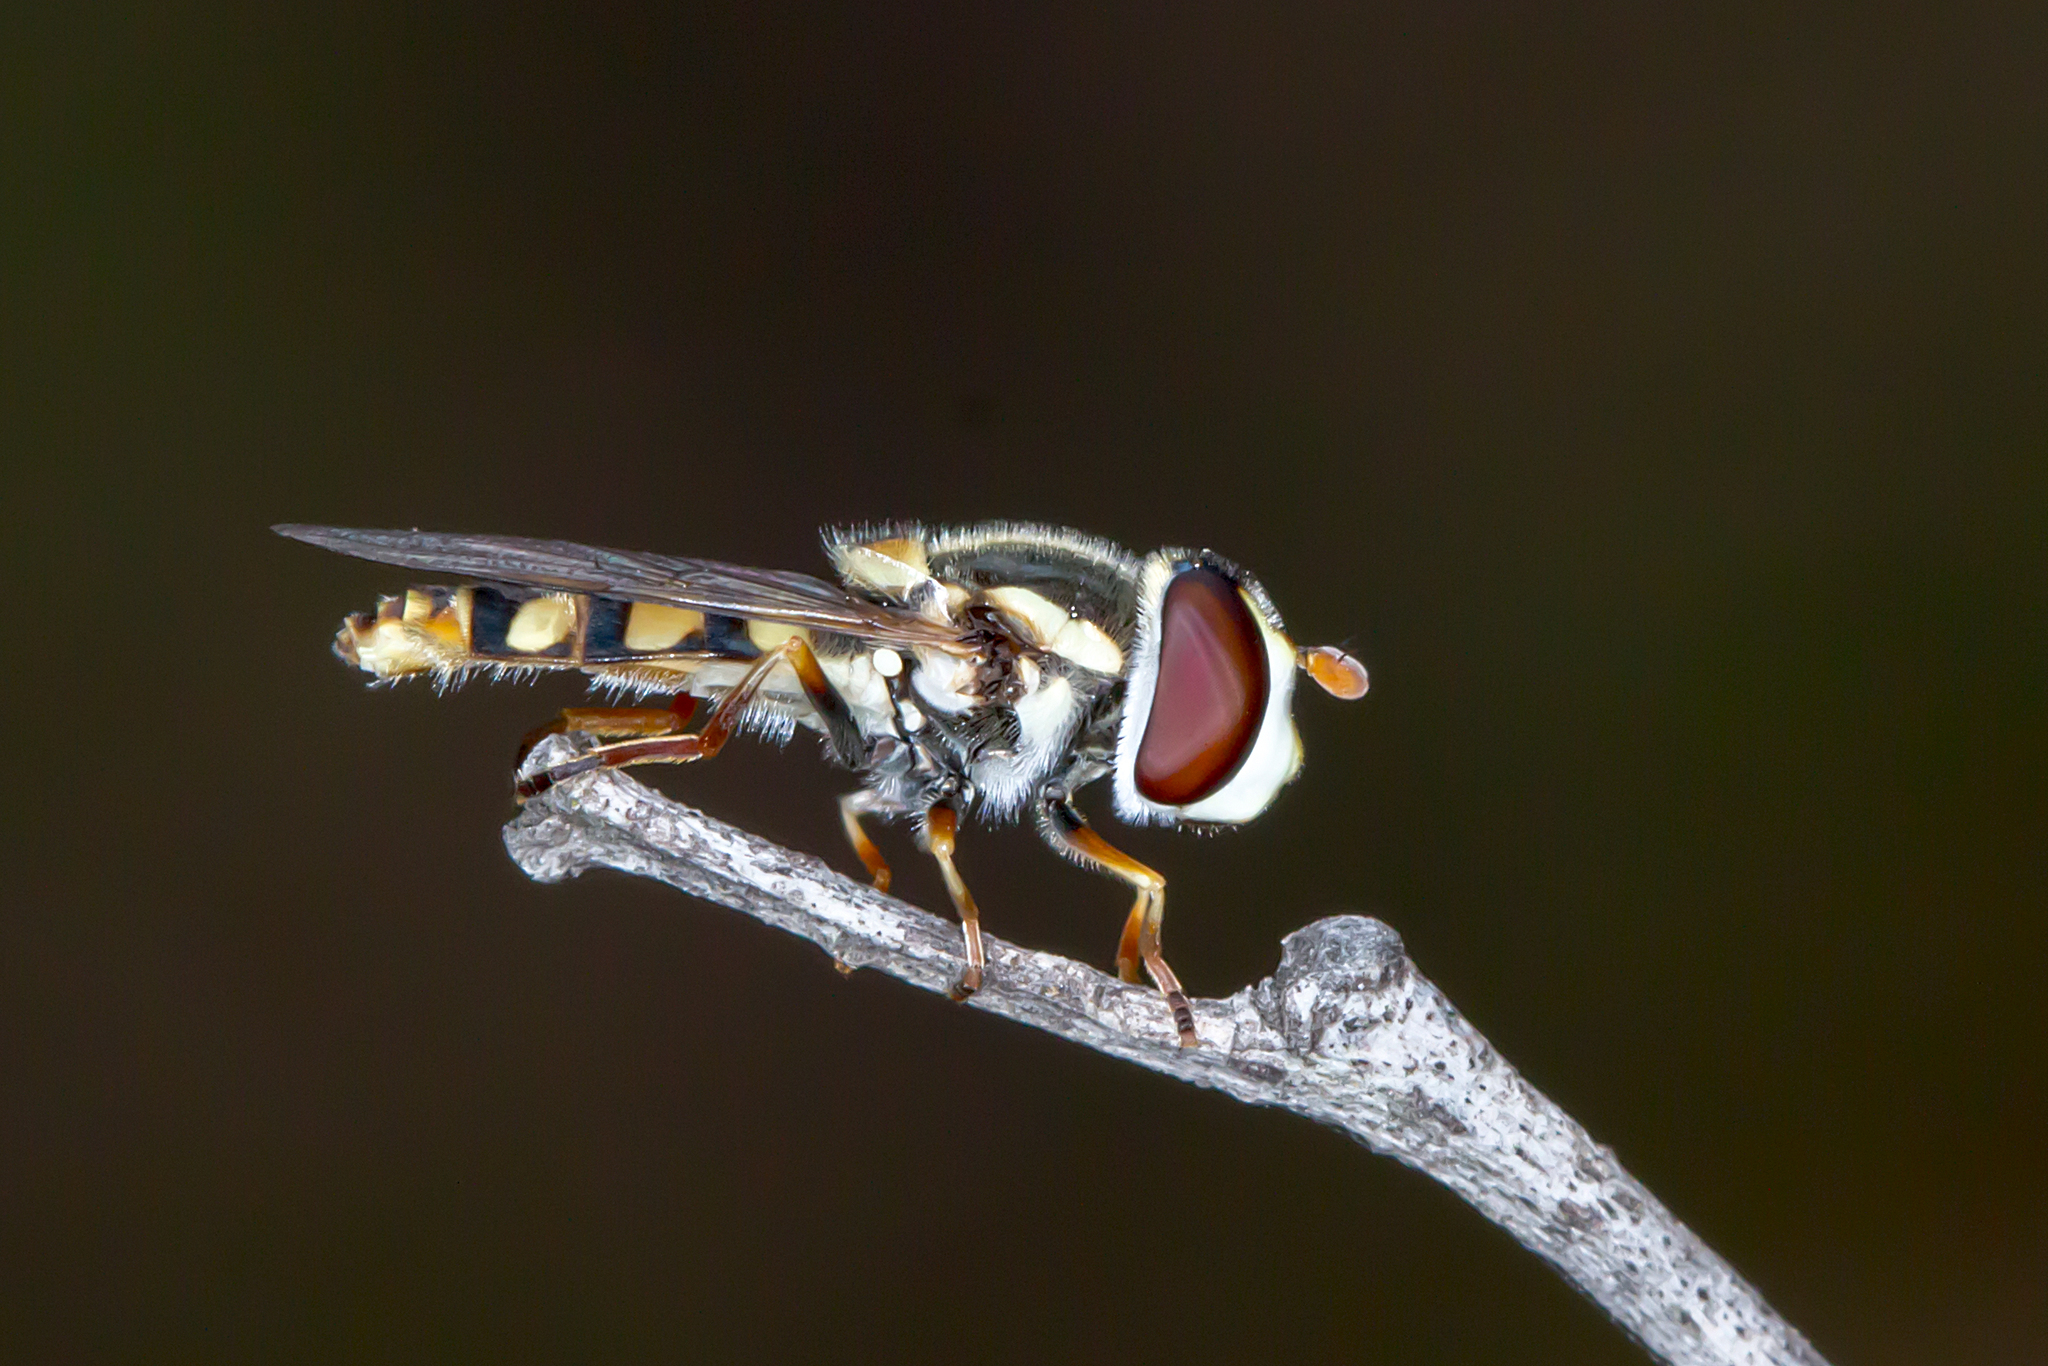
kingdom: Animalia
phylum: Arthropoda
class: Insecta
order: Diptera
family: Syrphidae
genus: Simosyrphus
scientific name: Simosyrphus grandicornis
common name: Hoverfly
